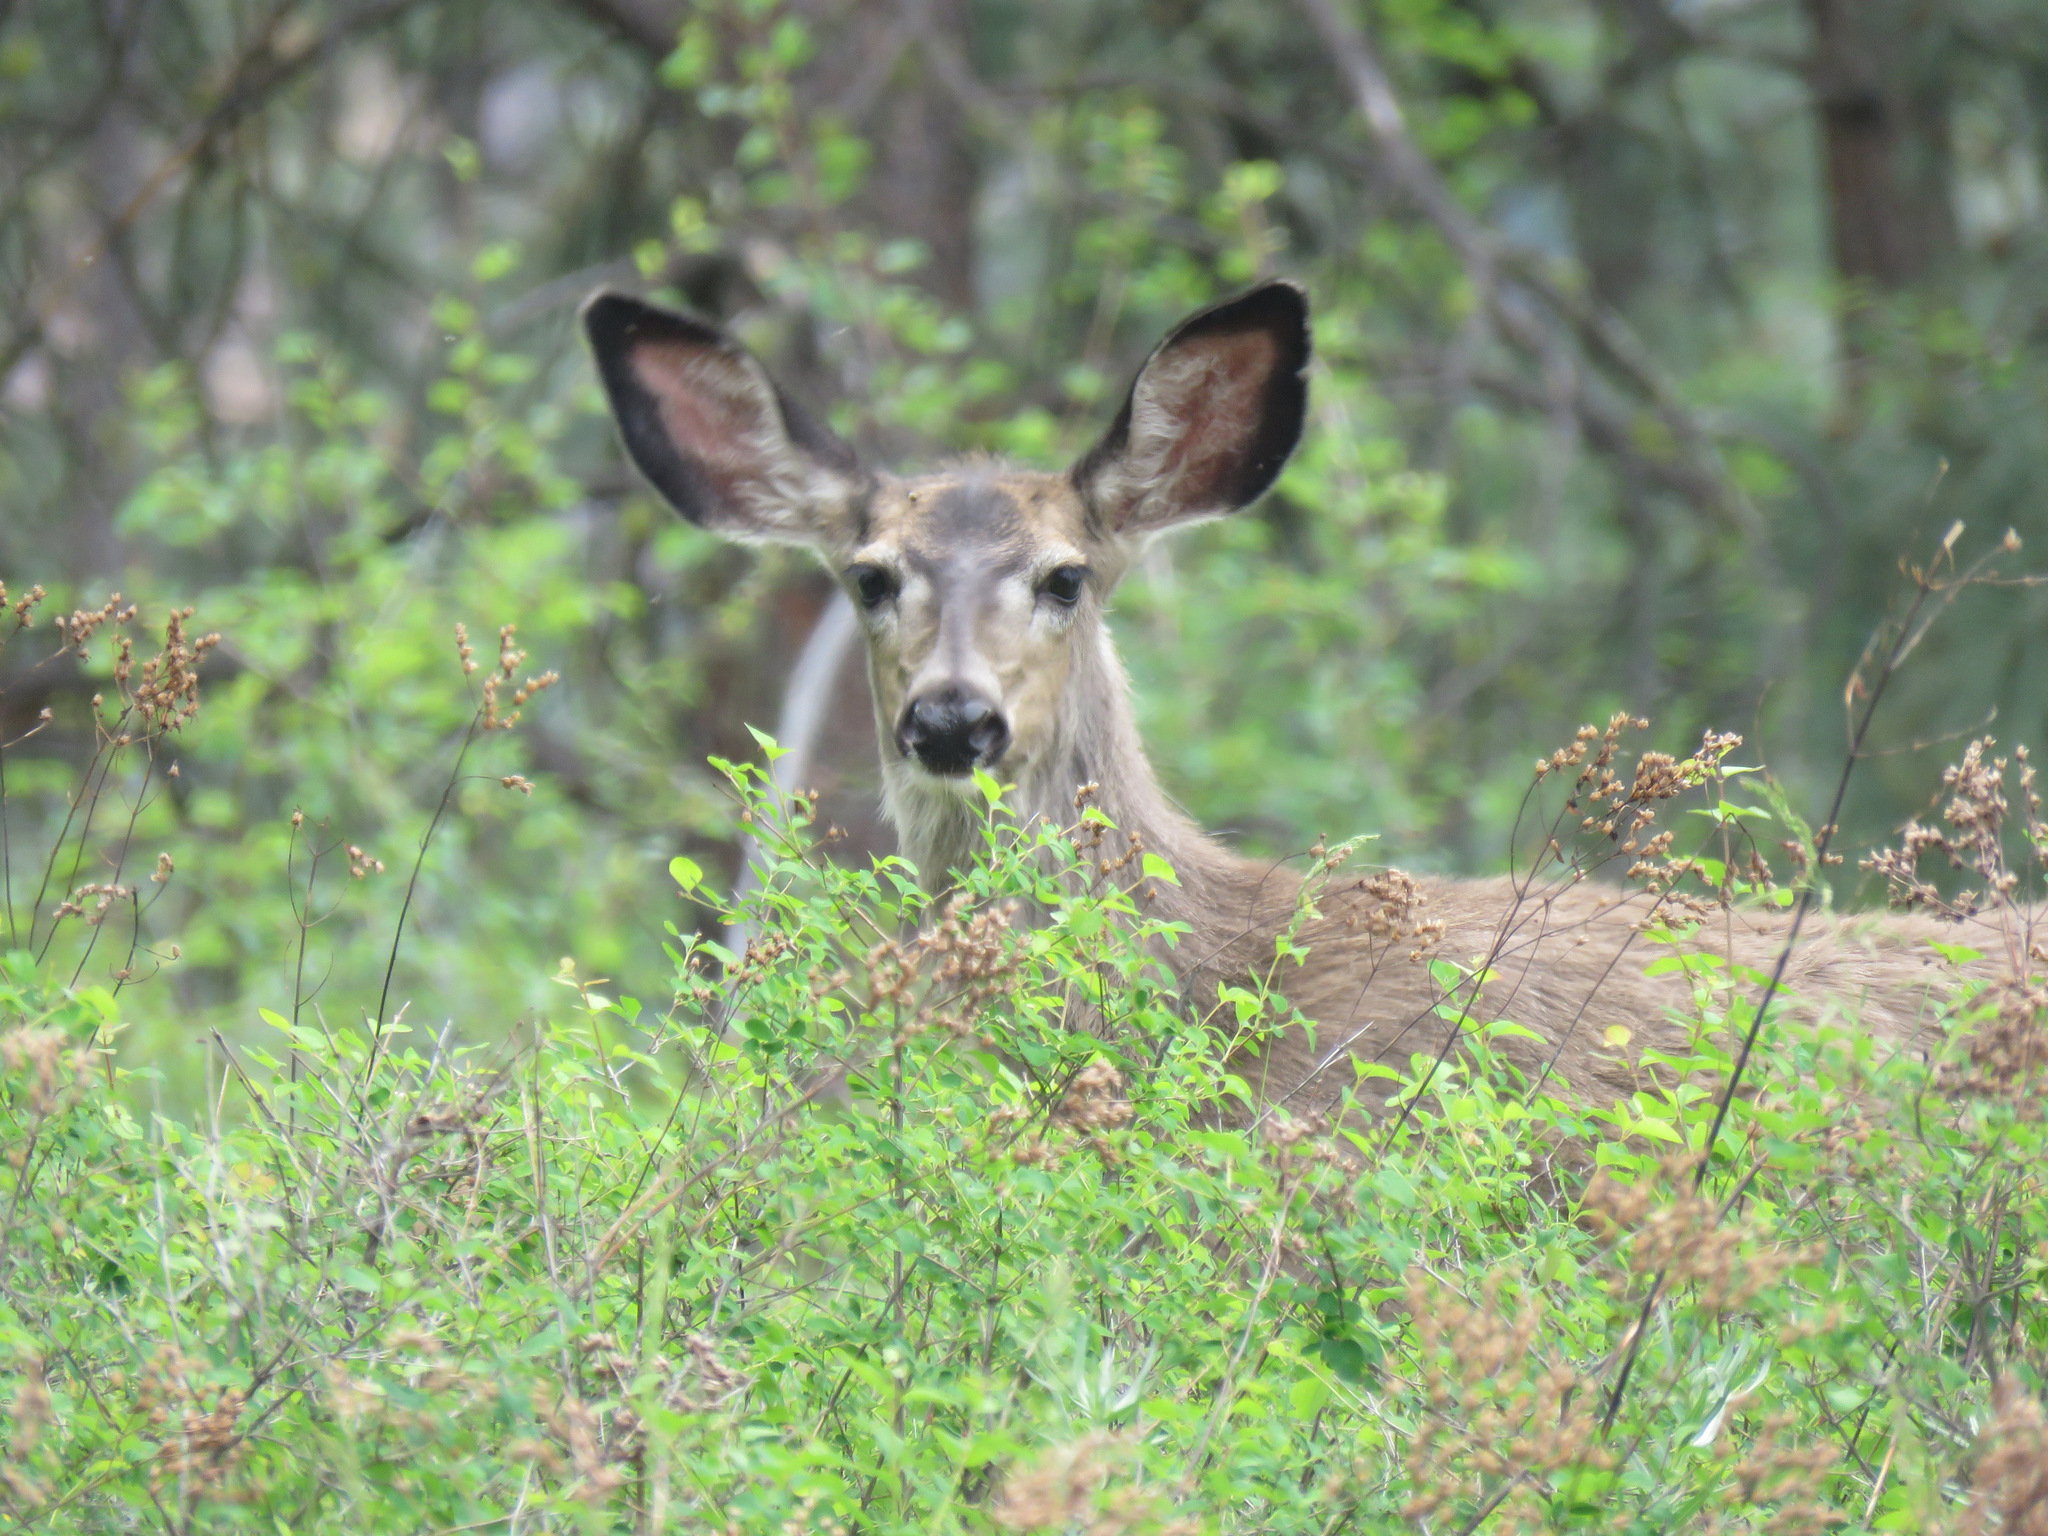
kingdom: Animalia
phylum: Chordata
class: Mammalia
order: Artiodactyla
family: Cervidae
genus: Odocoileus
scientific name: Odocoileus hemionus
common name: Mule deer
